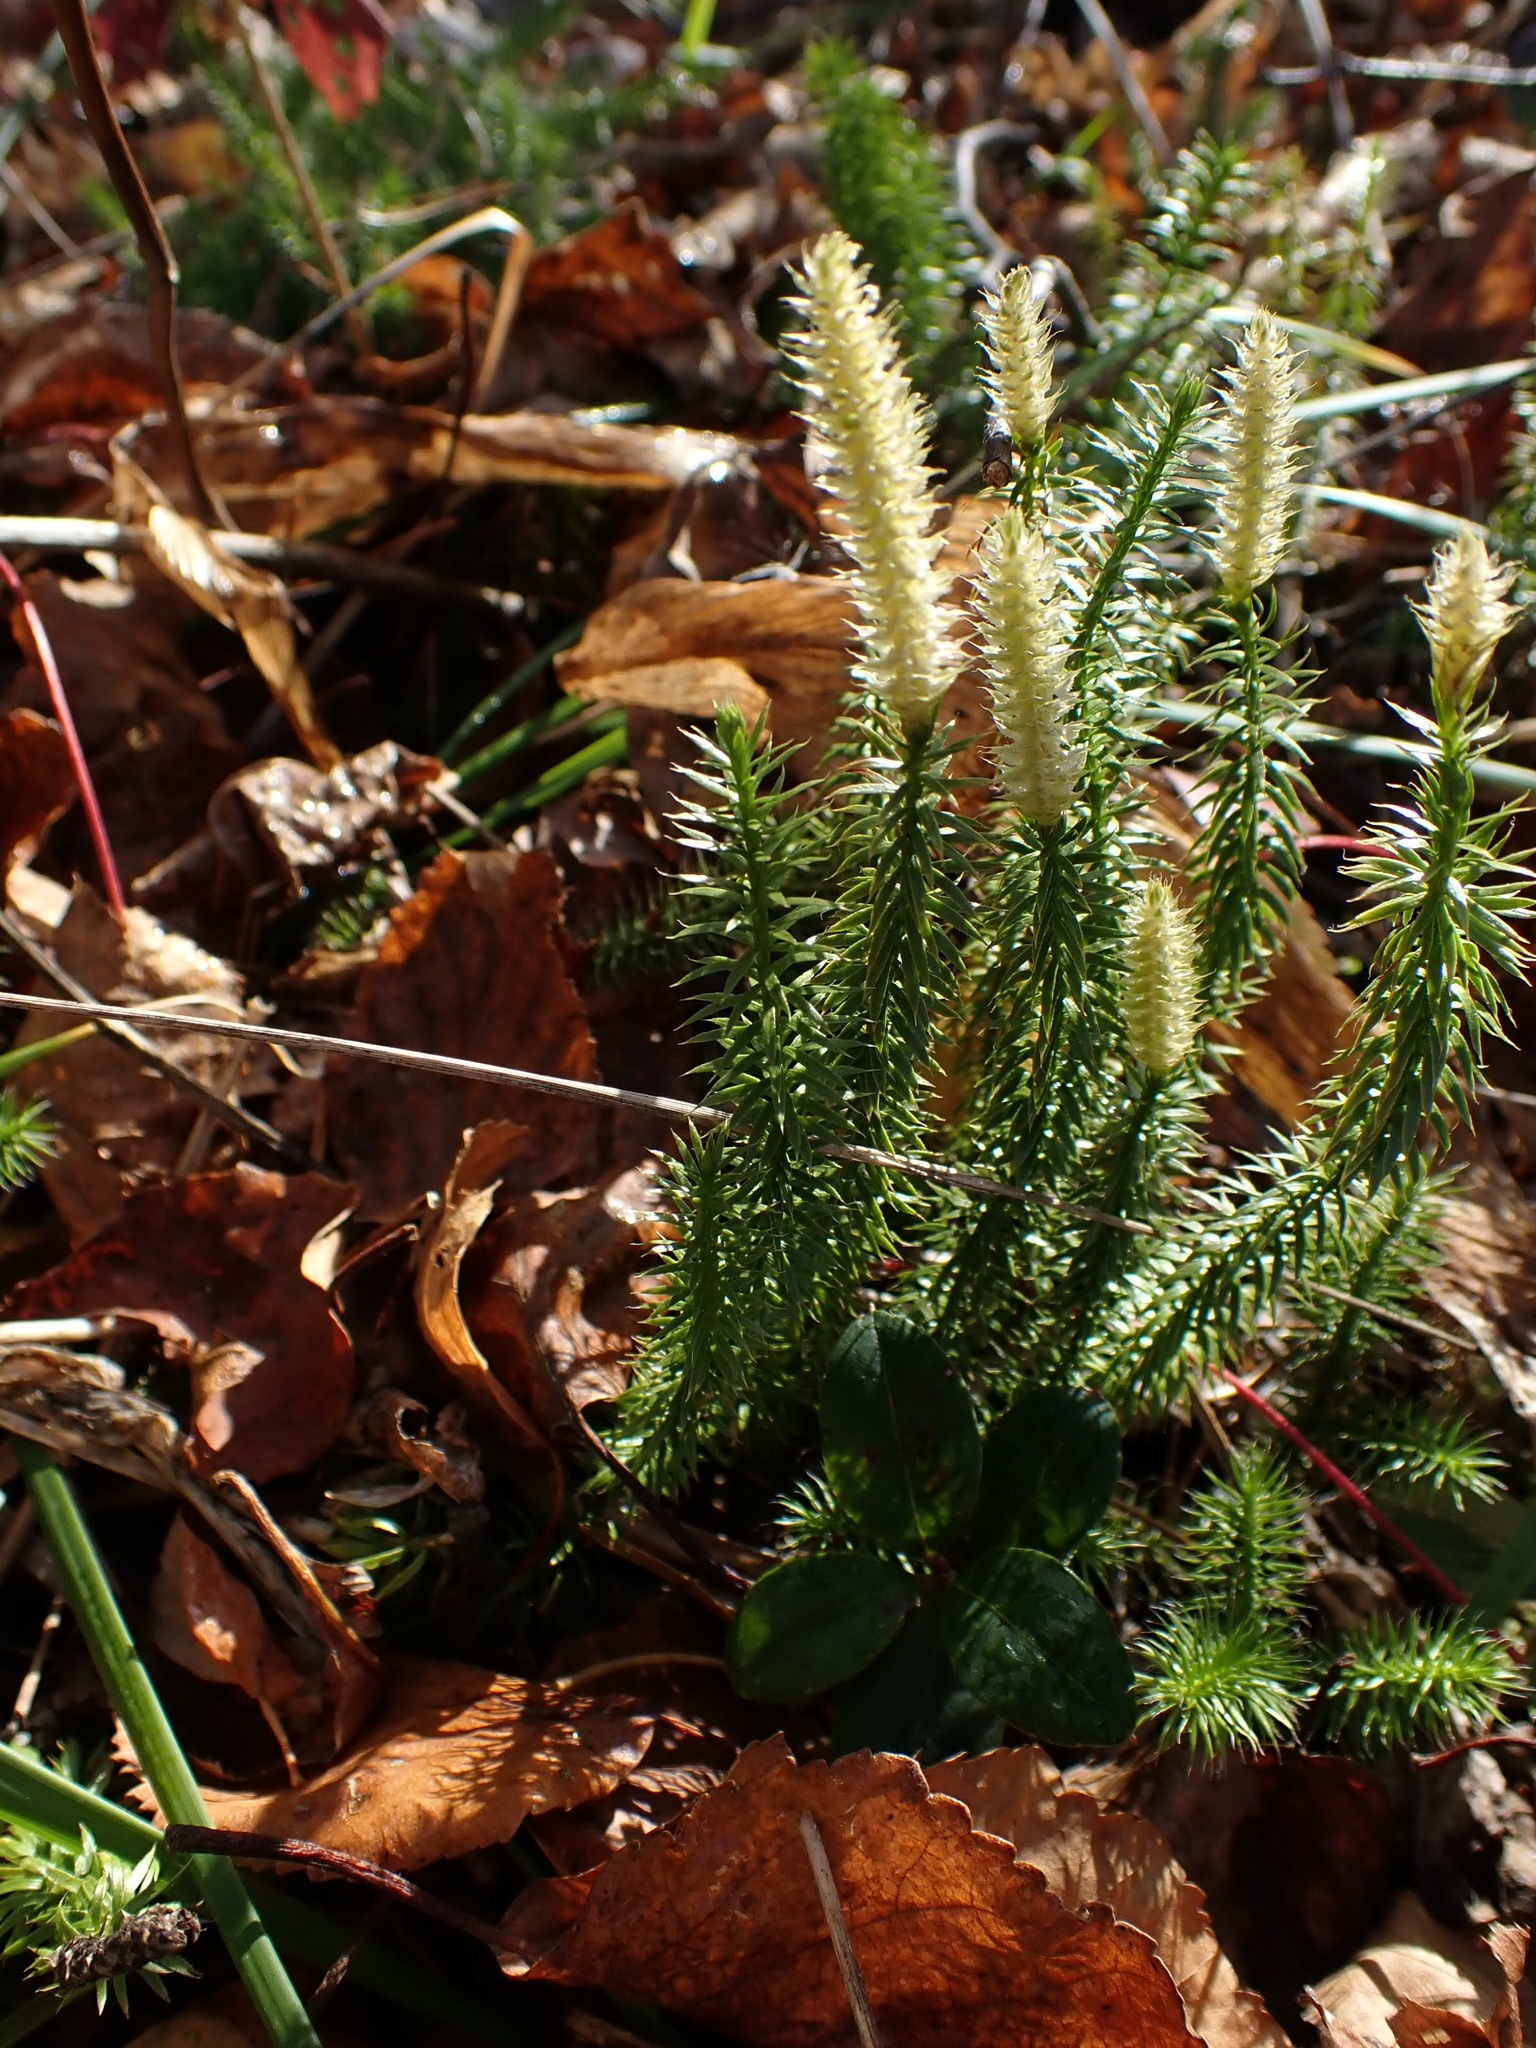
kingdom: Plantae
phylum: Tracheophyta
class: Lycopodiopsida
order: Lycopodiales
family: Lycopodiaceae
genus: Spinulum
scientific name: Spinulum annotinum
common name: Interrupted club-moss
